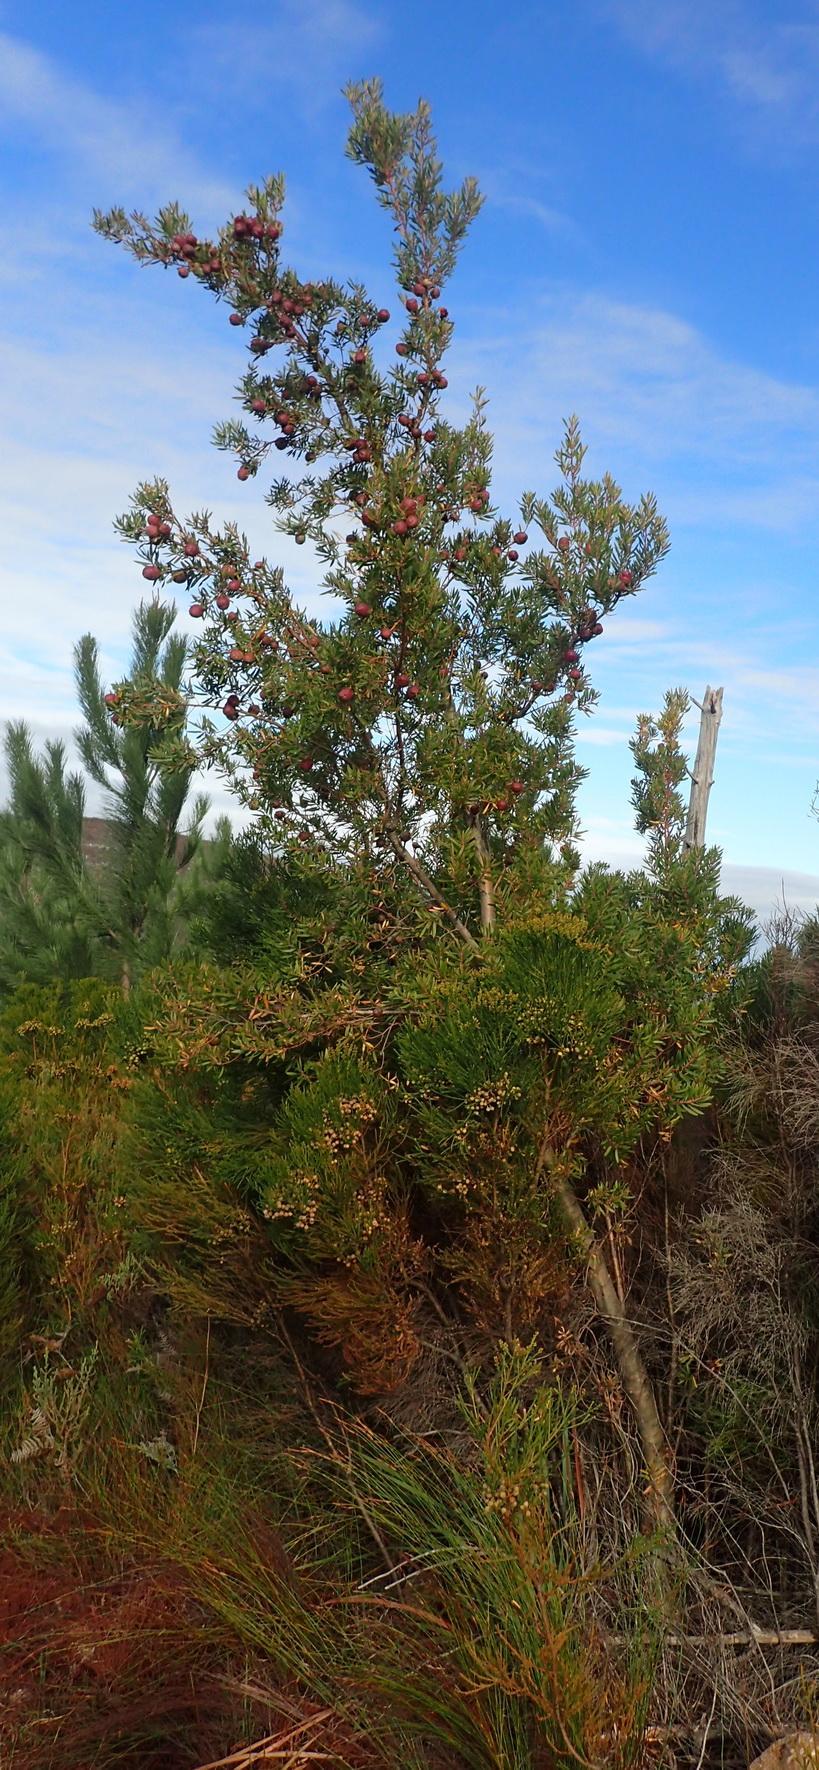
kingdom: Plantae
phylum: Tracheophyta
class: Magnoliopsida
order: Proteales
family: Proteaceae
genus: Leucadendron
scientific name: Leucadendron conicum
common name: Garden route conebush
